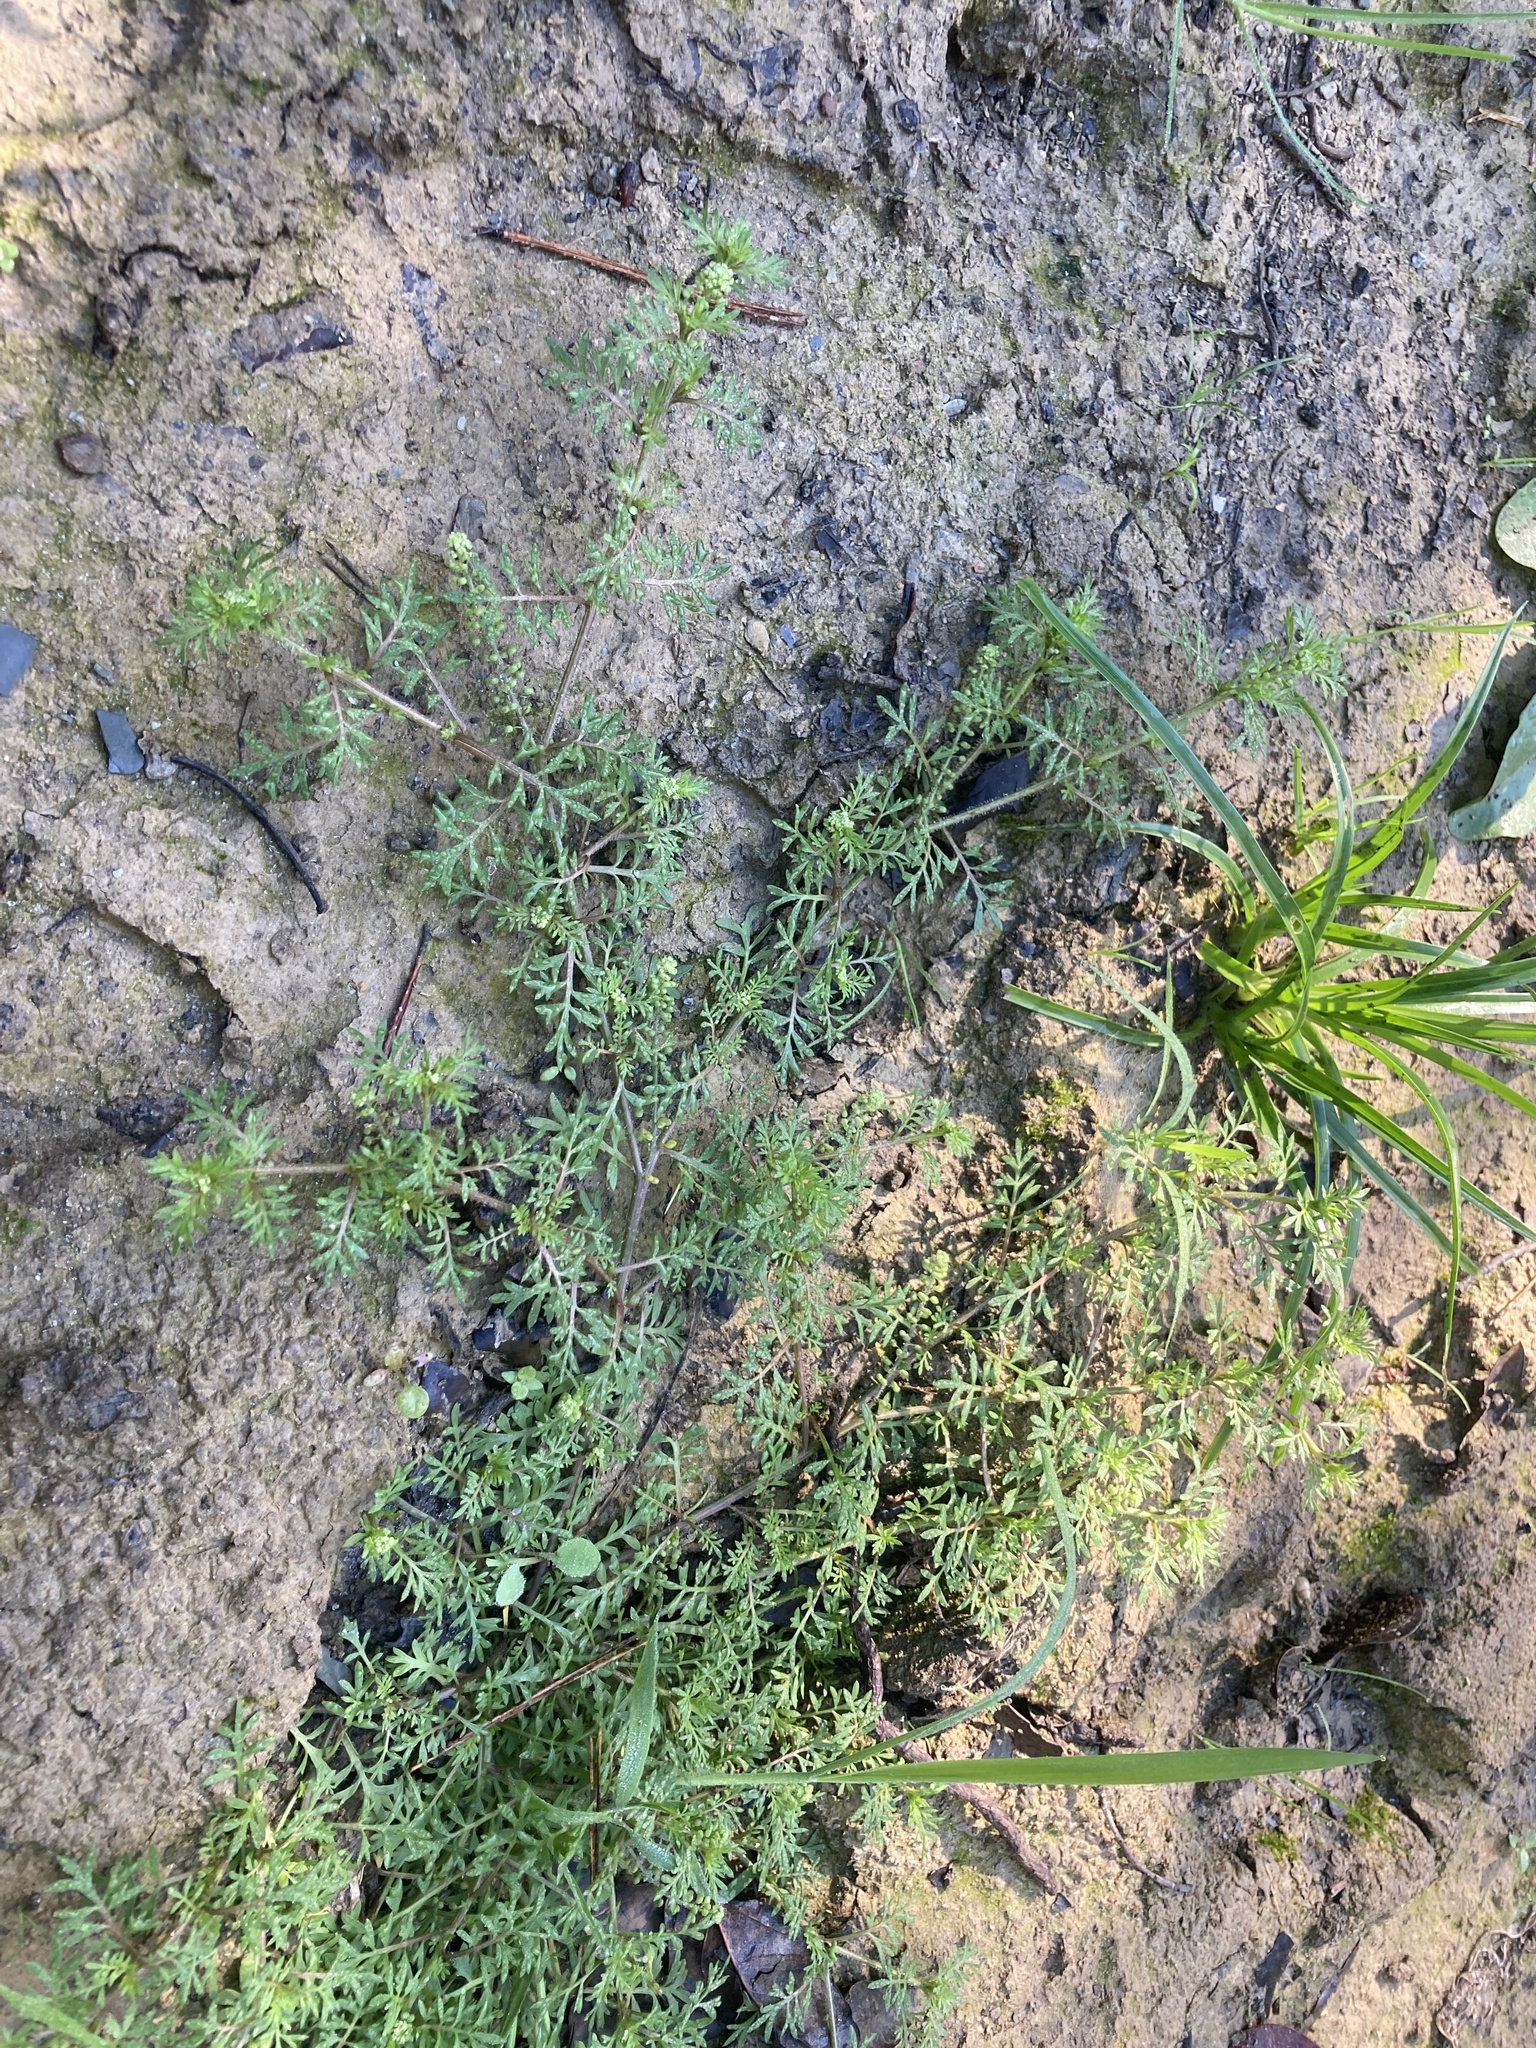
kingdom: Plantae
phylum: Tracheophyta
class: Magnoliopsida
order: Brassicales
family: Brassicaceae
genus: Lepidium
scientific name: Lepidium didymum
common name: Lesser swinecress
